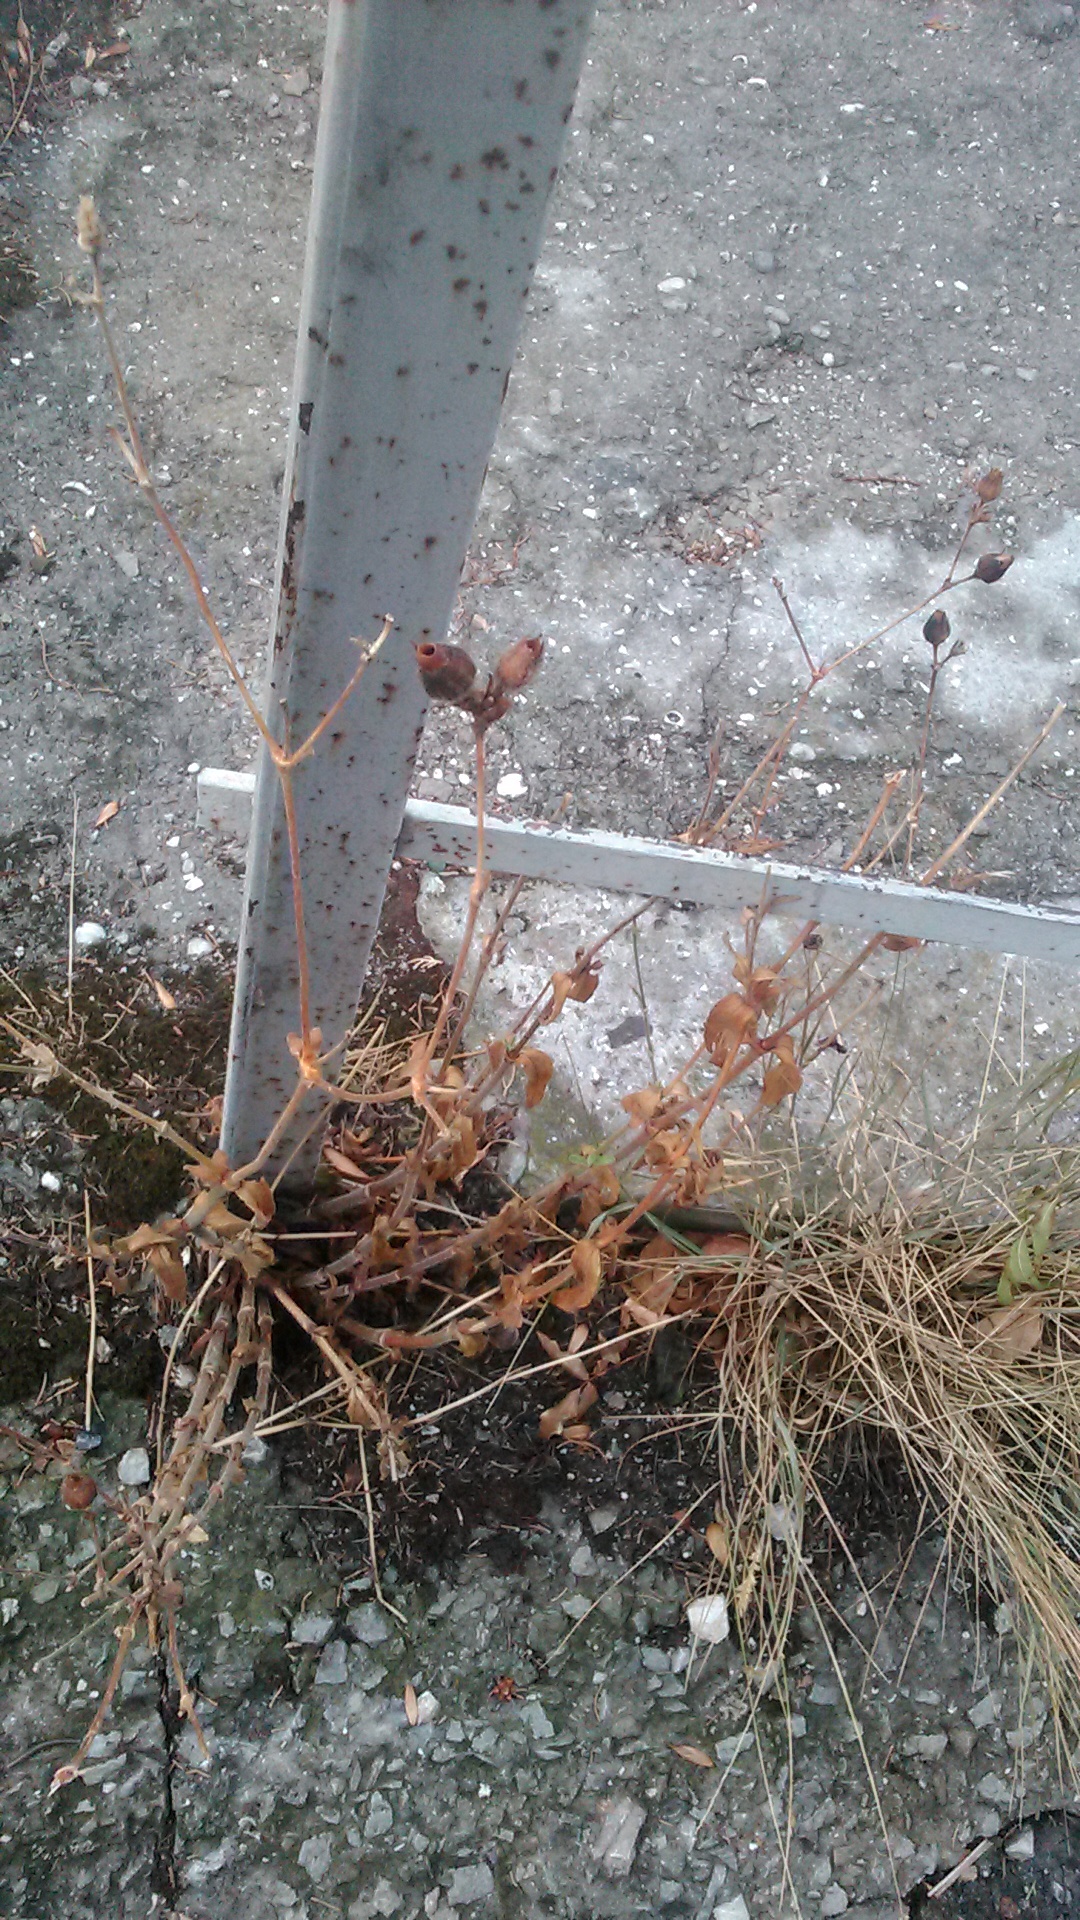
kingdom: Plantae
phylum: Tracheophyta
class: Magnoliopsida
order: Caryophyllales
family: Caryophyllaceae
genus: Silene
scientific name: Silene latifolia
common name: White campion
